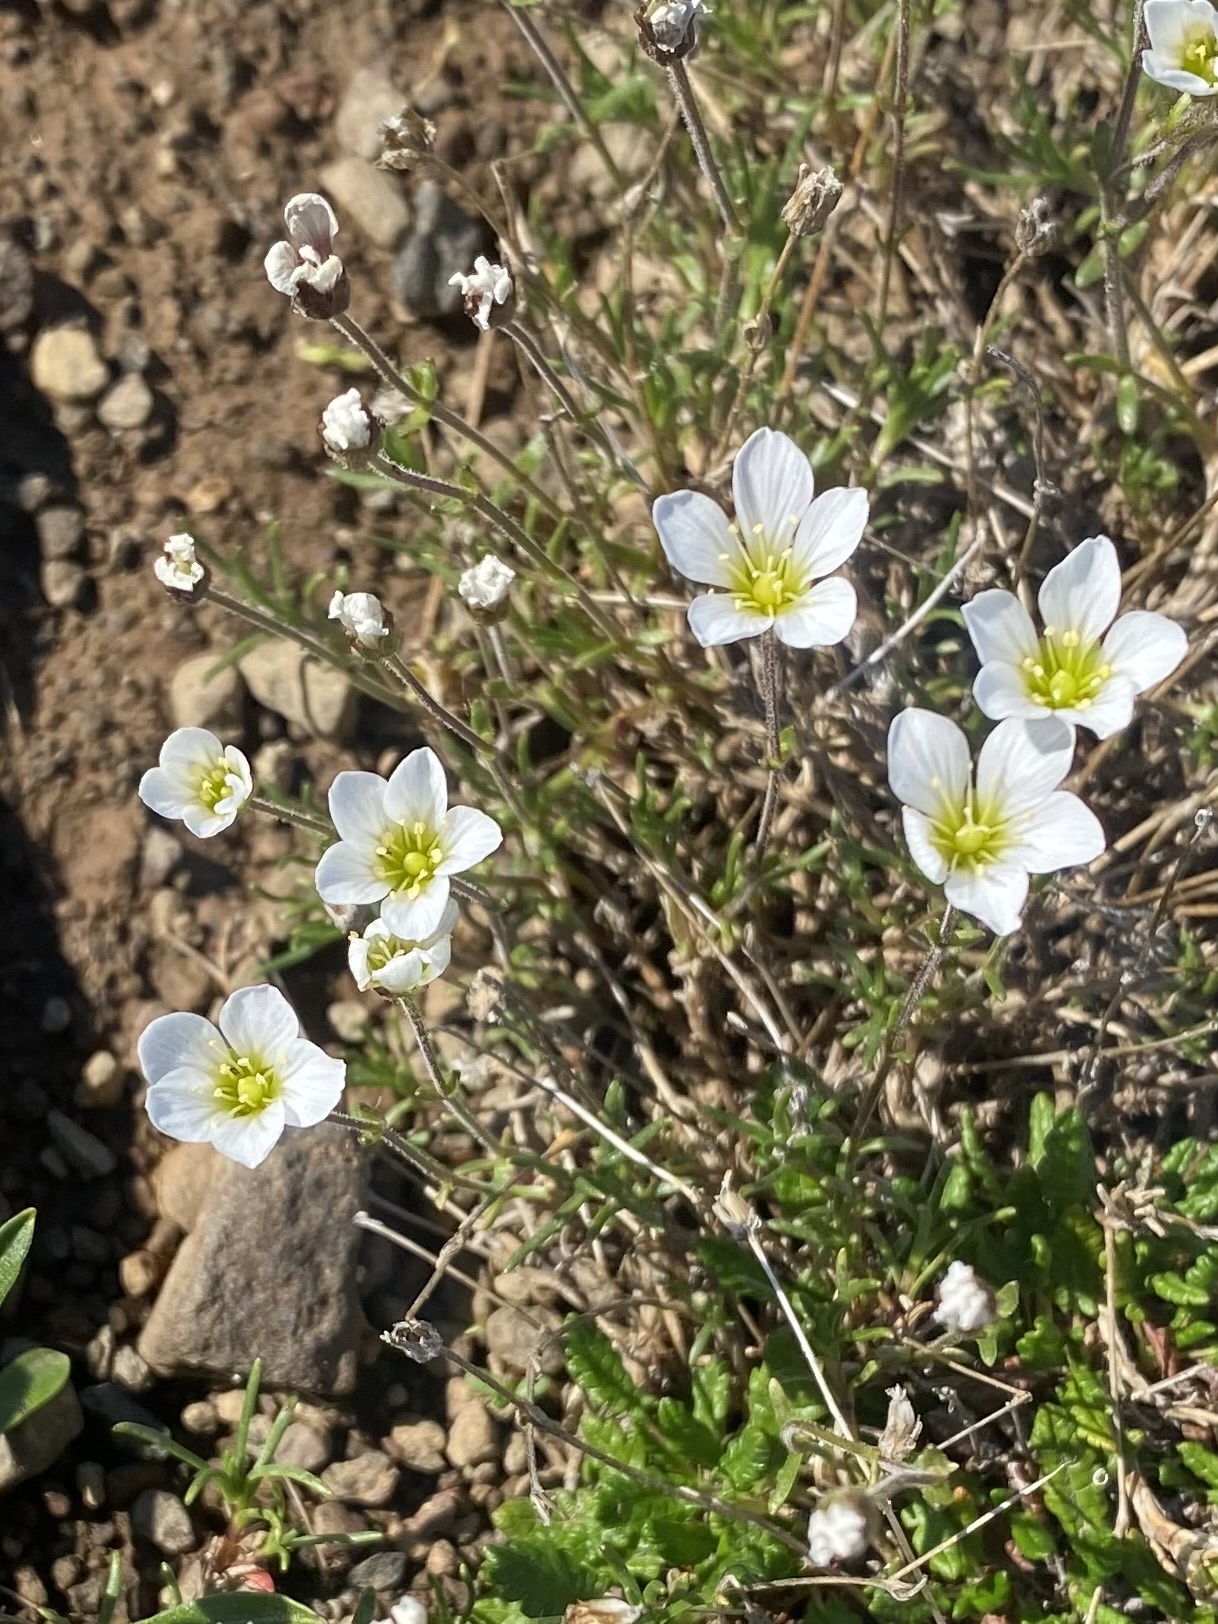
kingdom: Plantae
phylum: Tracheophyta
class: Magnoliopsida
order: Caryophyllales
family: Caryophyllaceae
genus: Cherleria
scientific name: Cherleria arctica
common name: Arctic sandwort
